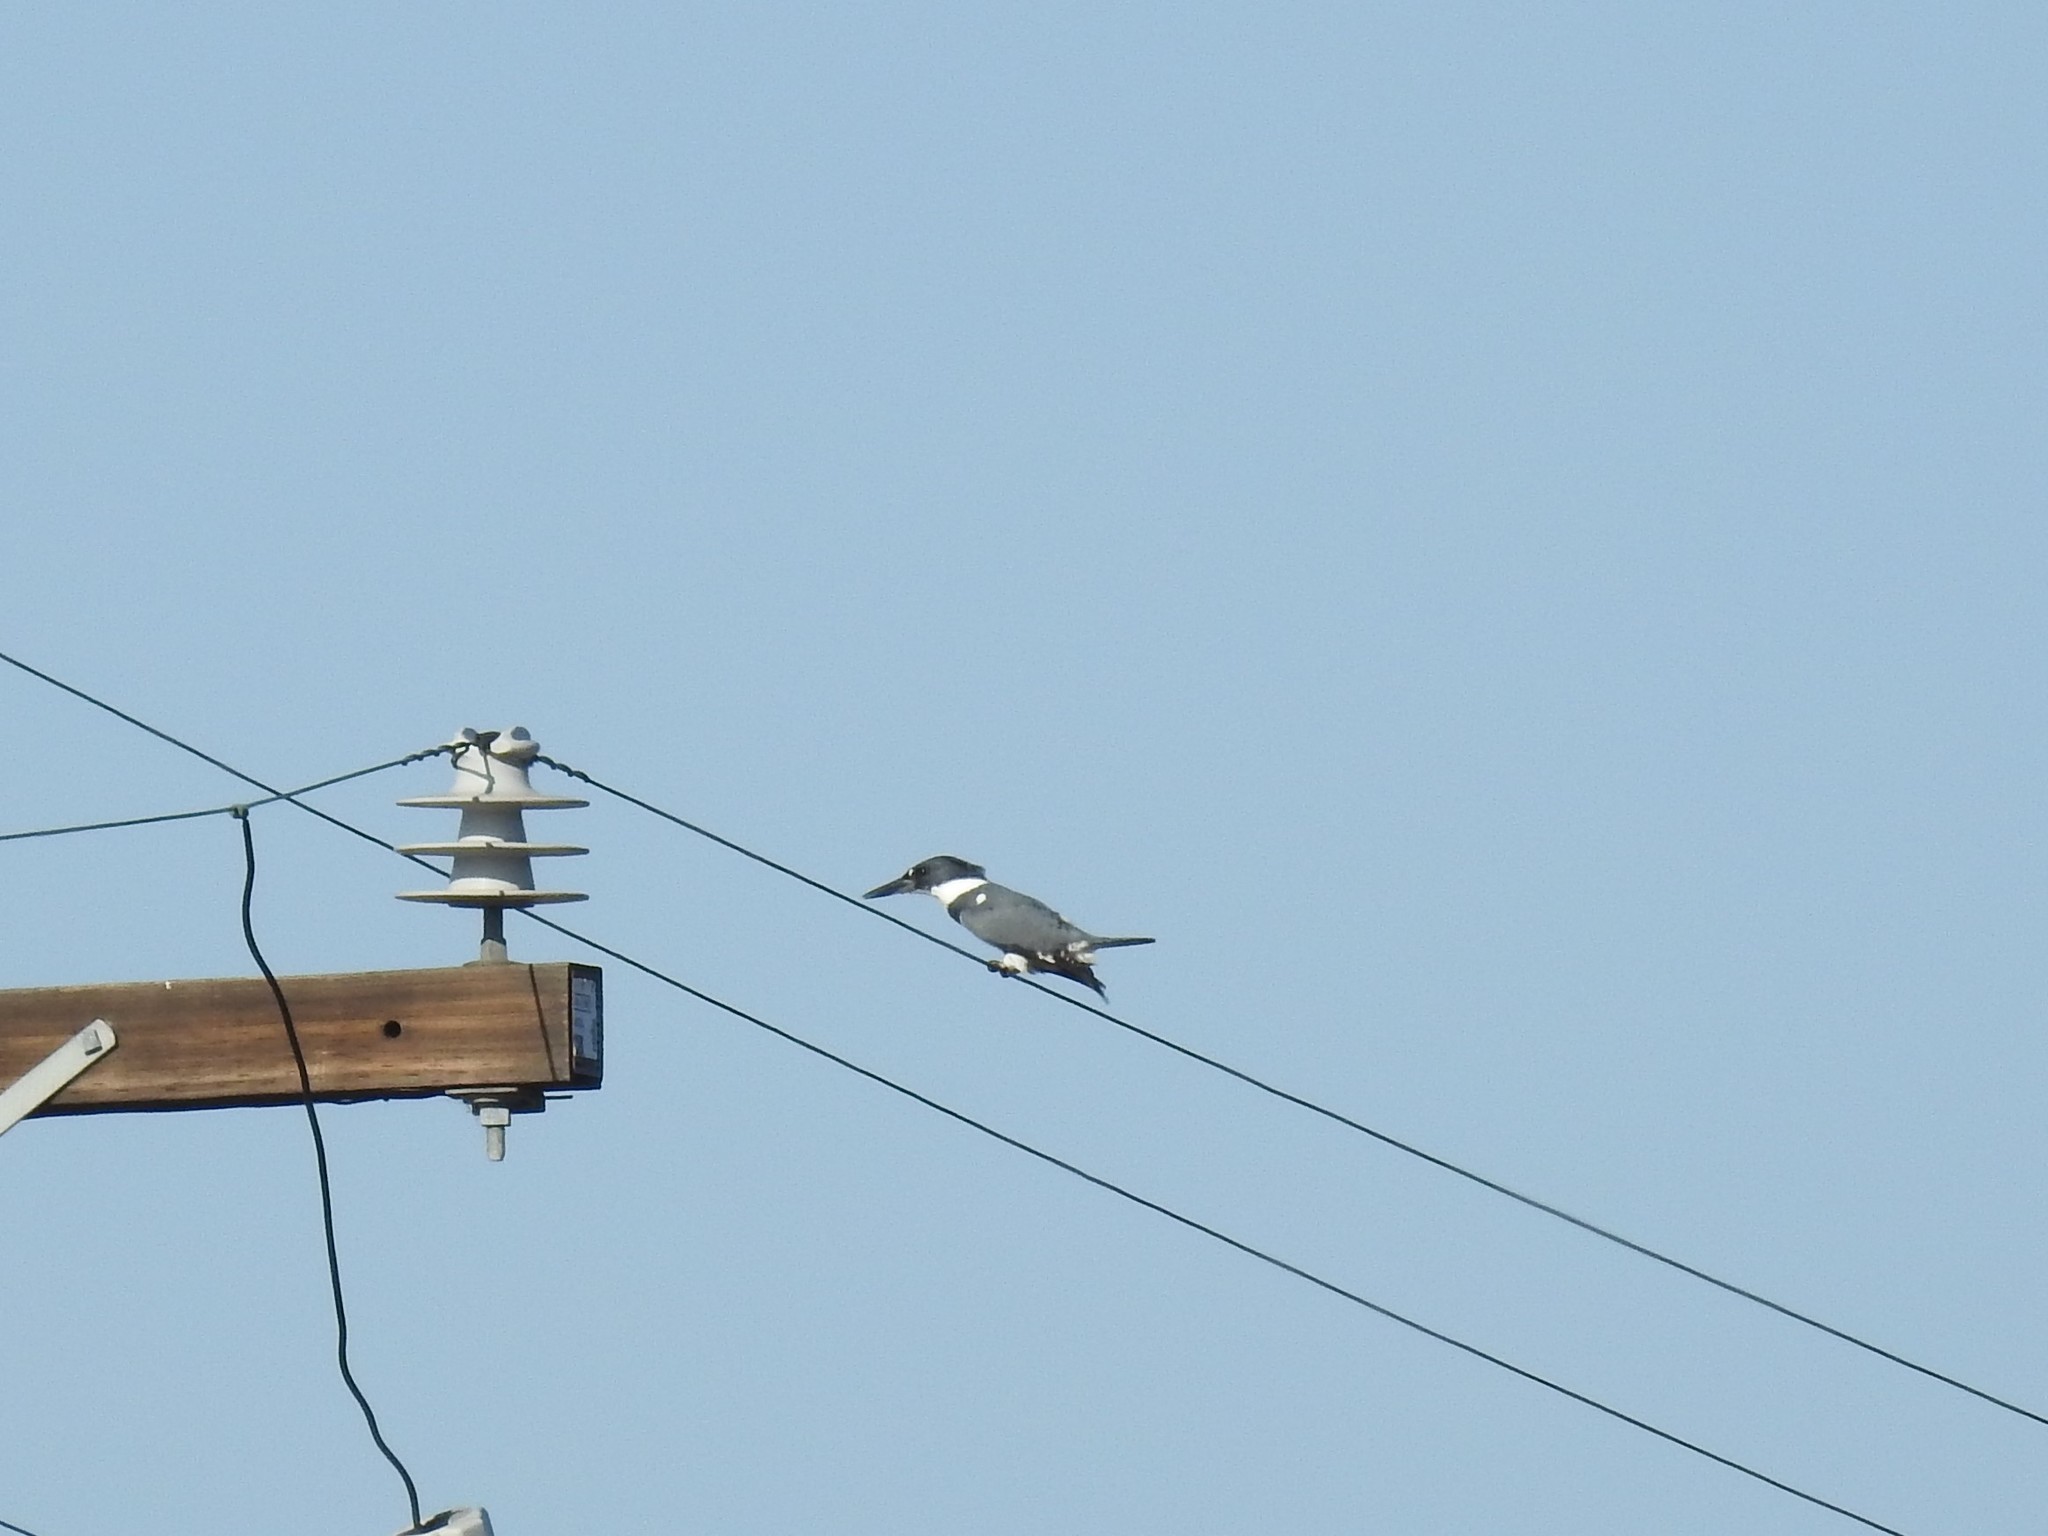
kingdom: Animalia
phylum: Chordata
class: Aves
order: Coraciiformes
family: Alcedinidae
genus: Megaceryle
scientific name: Megaceryle alcyon
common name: Belted kingfisher
